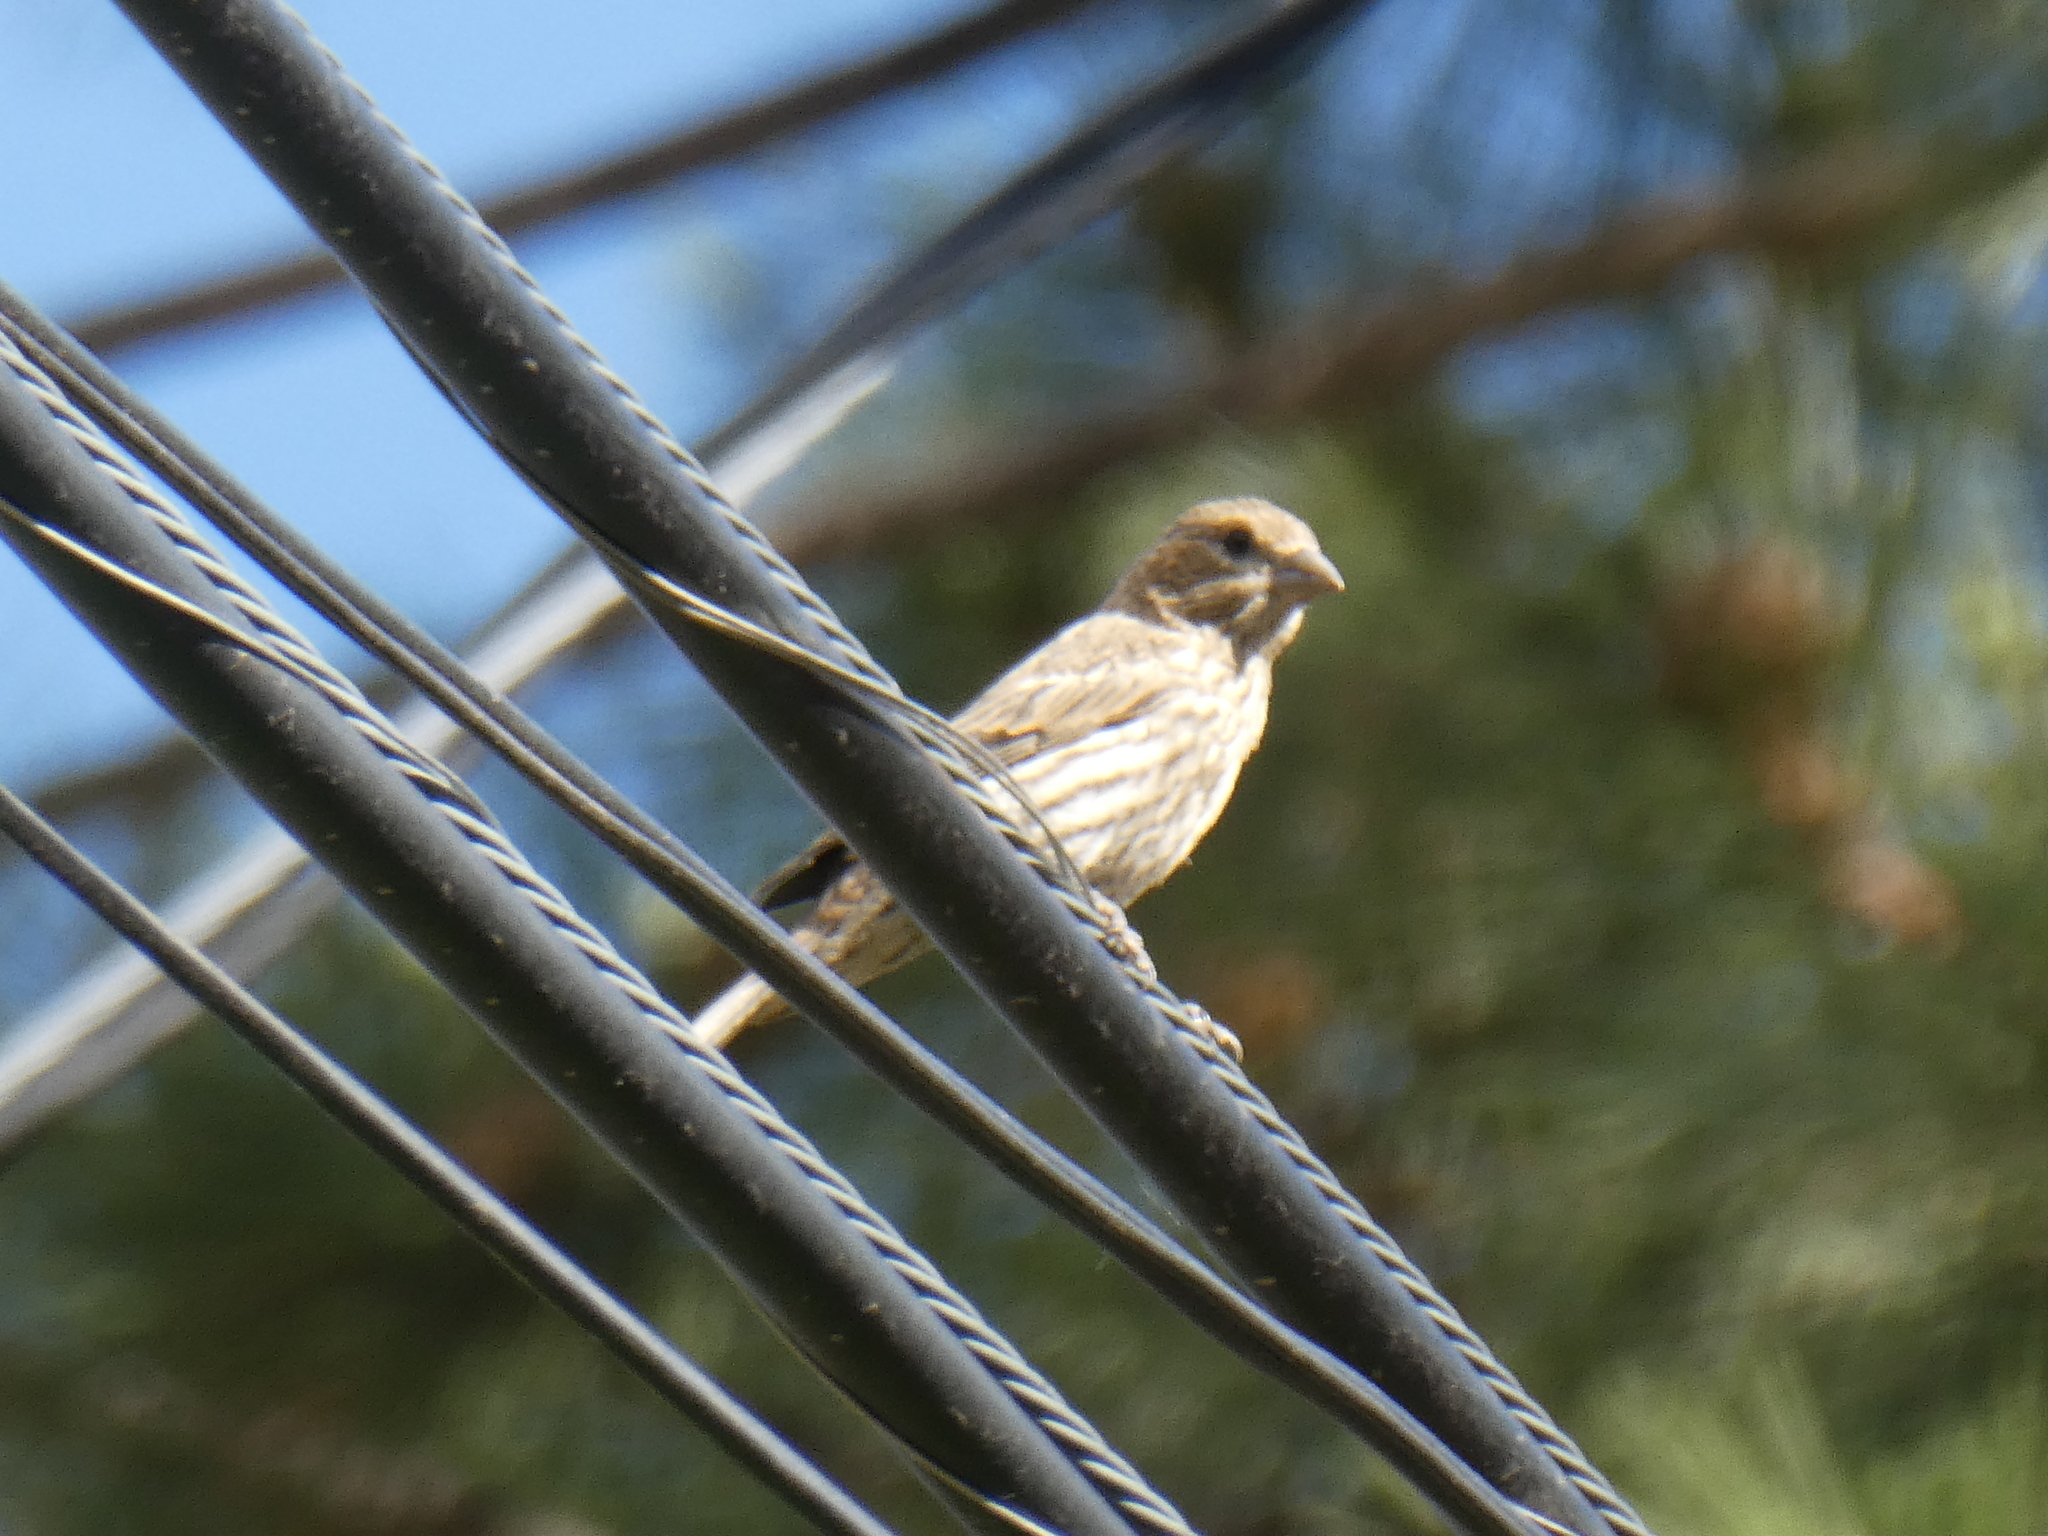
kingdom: Animalia
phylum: Chordata
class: Aves
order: Passeriformes
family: Fringillidae
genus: Haemorhous
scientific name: Haemorhous mexicanus
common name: House finch
